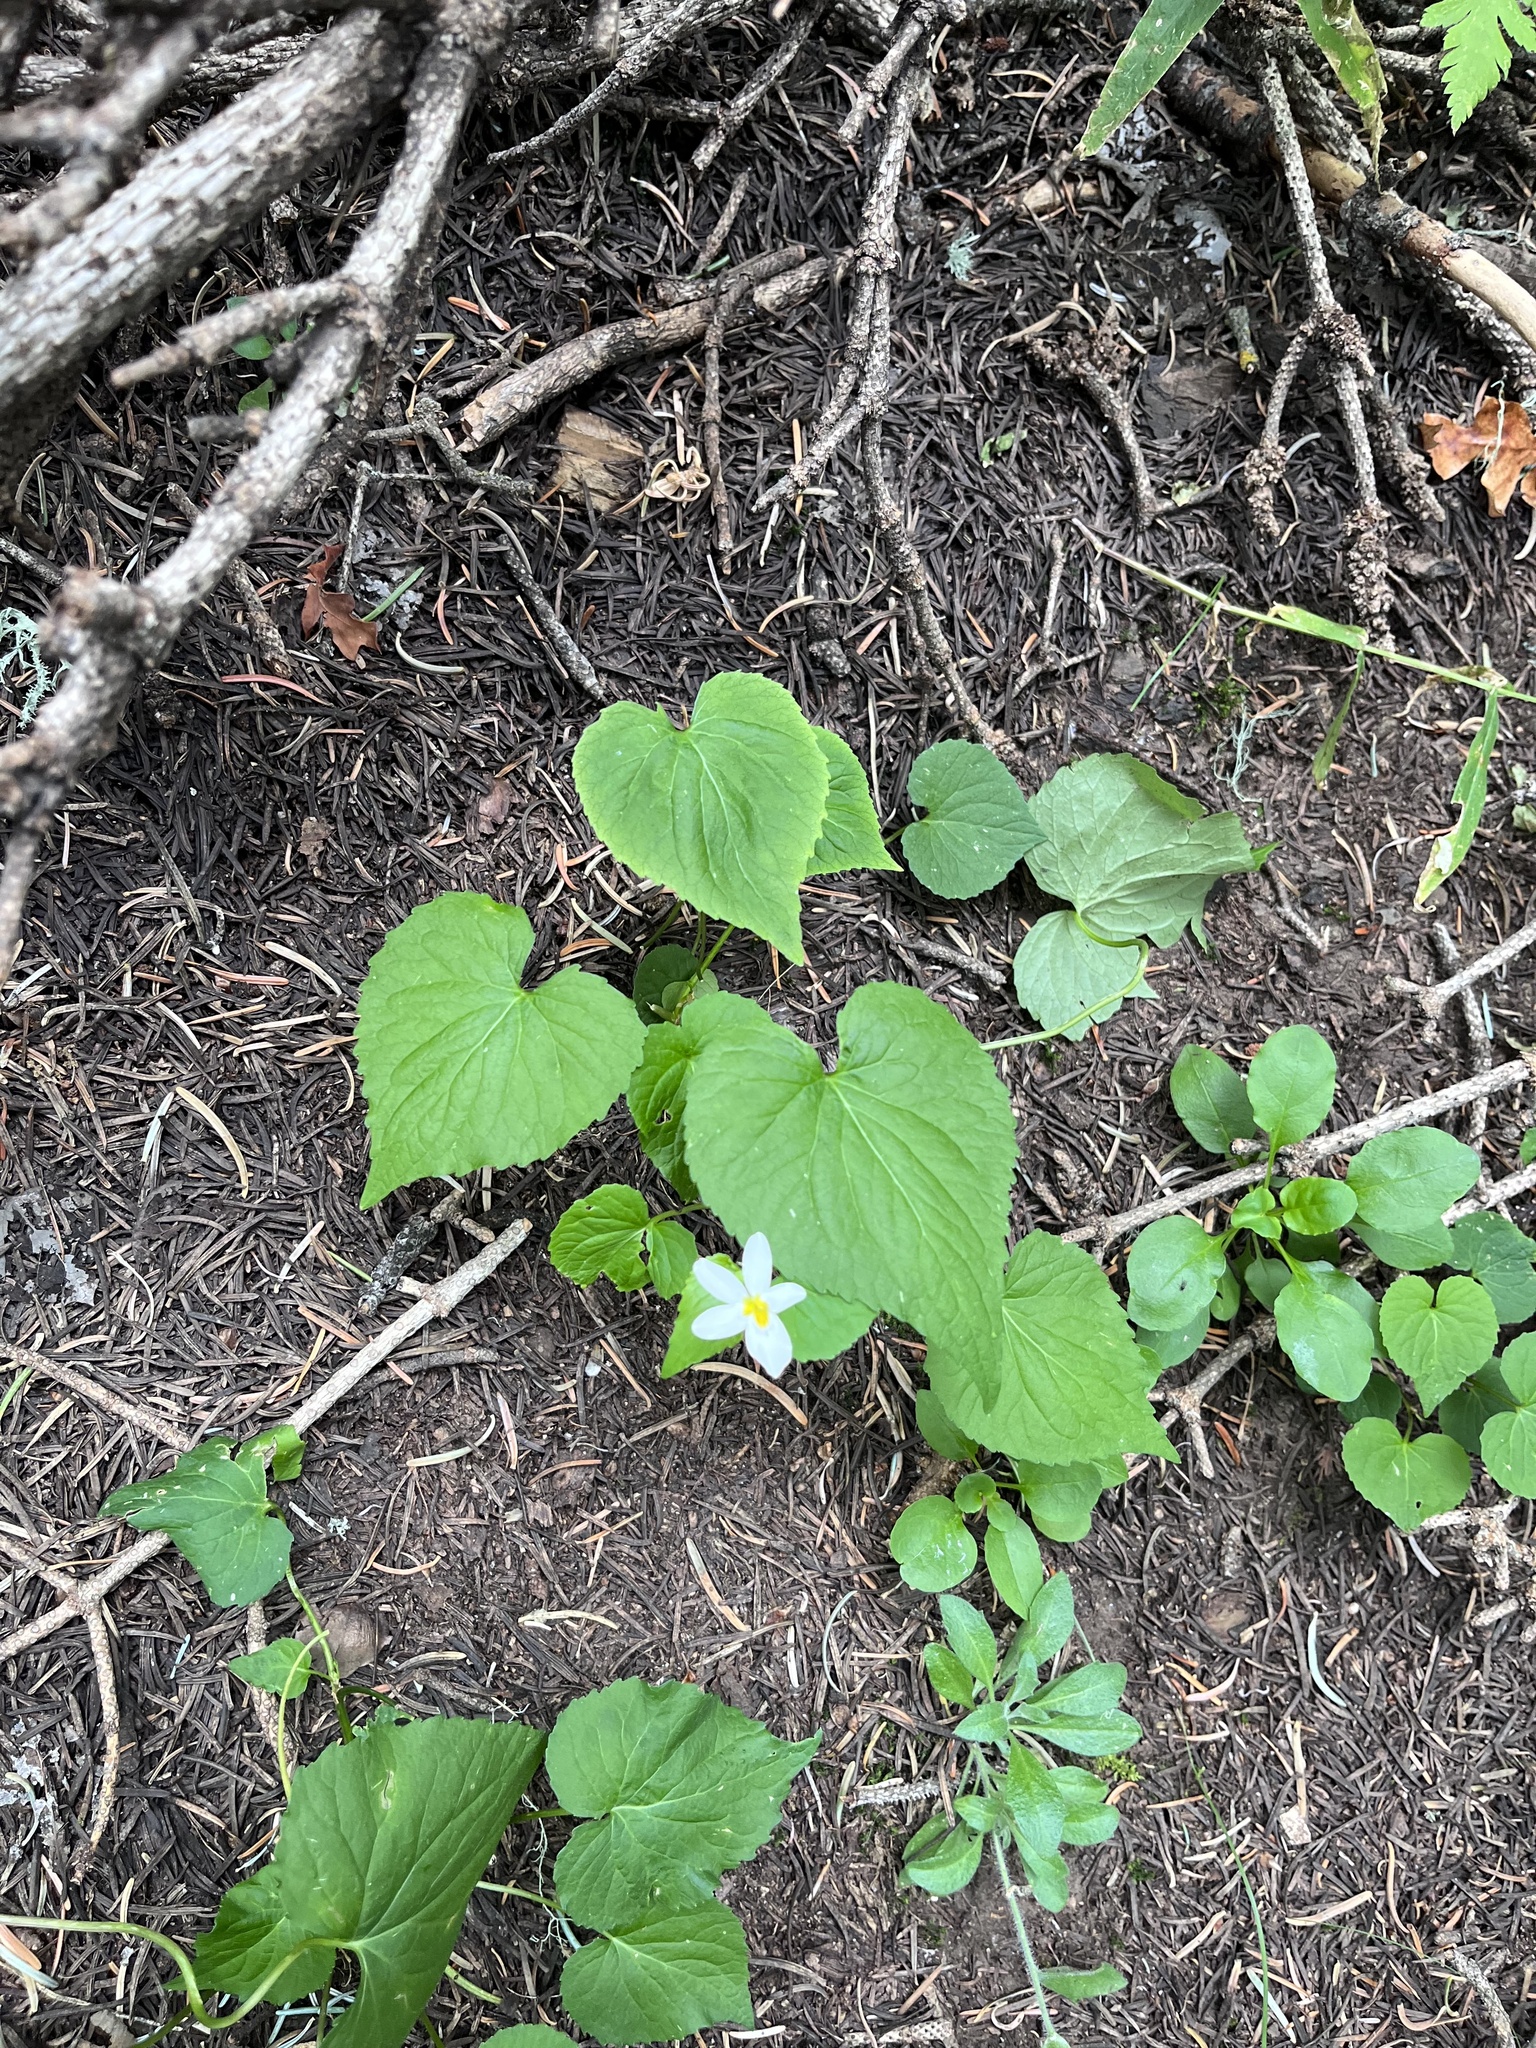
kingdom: Plantae
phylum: Tracheophyta
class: Magnoliopsida
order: Malpighiales
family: Violaceae
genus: Viola
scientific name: Viola canadensis
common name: Canada violet
